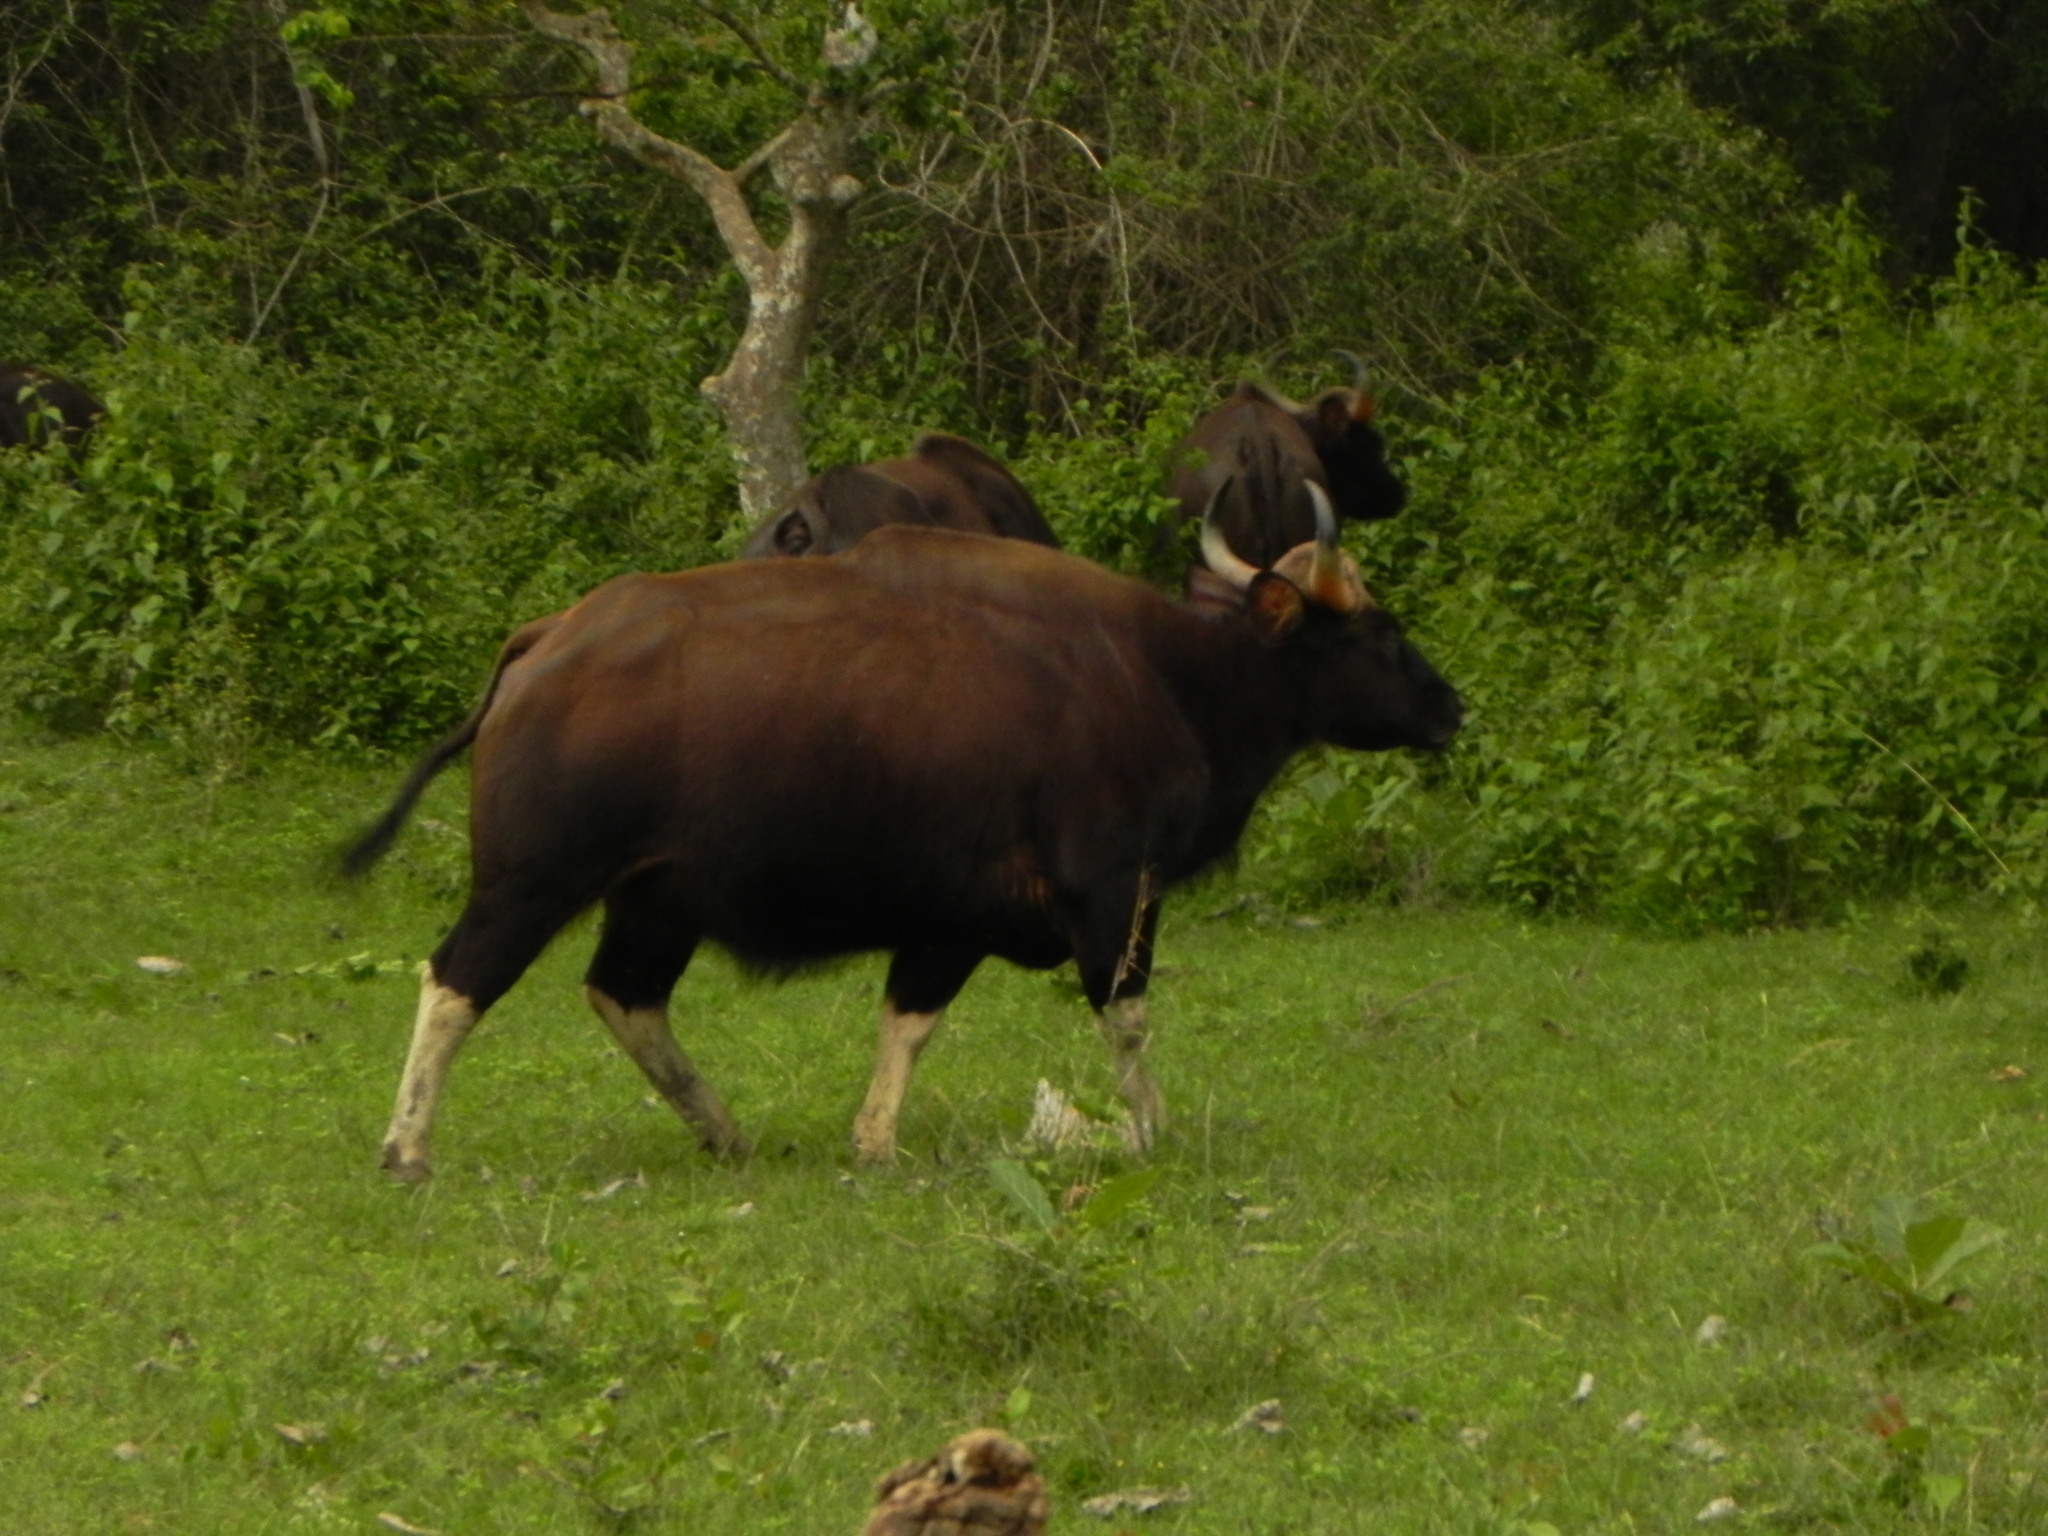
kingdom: Animalia
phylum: Chordata
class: Mammalia
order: Artiodactyla
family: Bovidae
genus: Bos
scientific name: Bos frontalis
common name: Gaur
